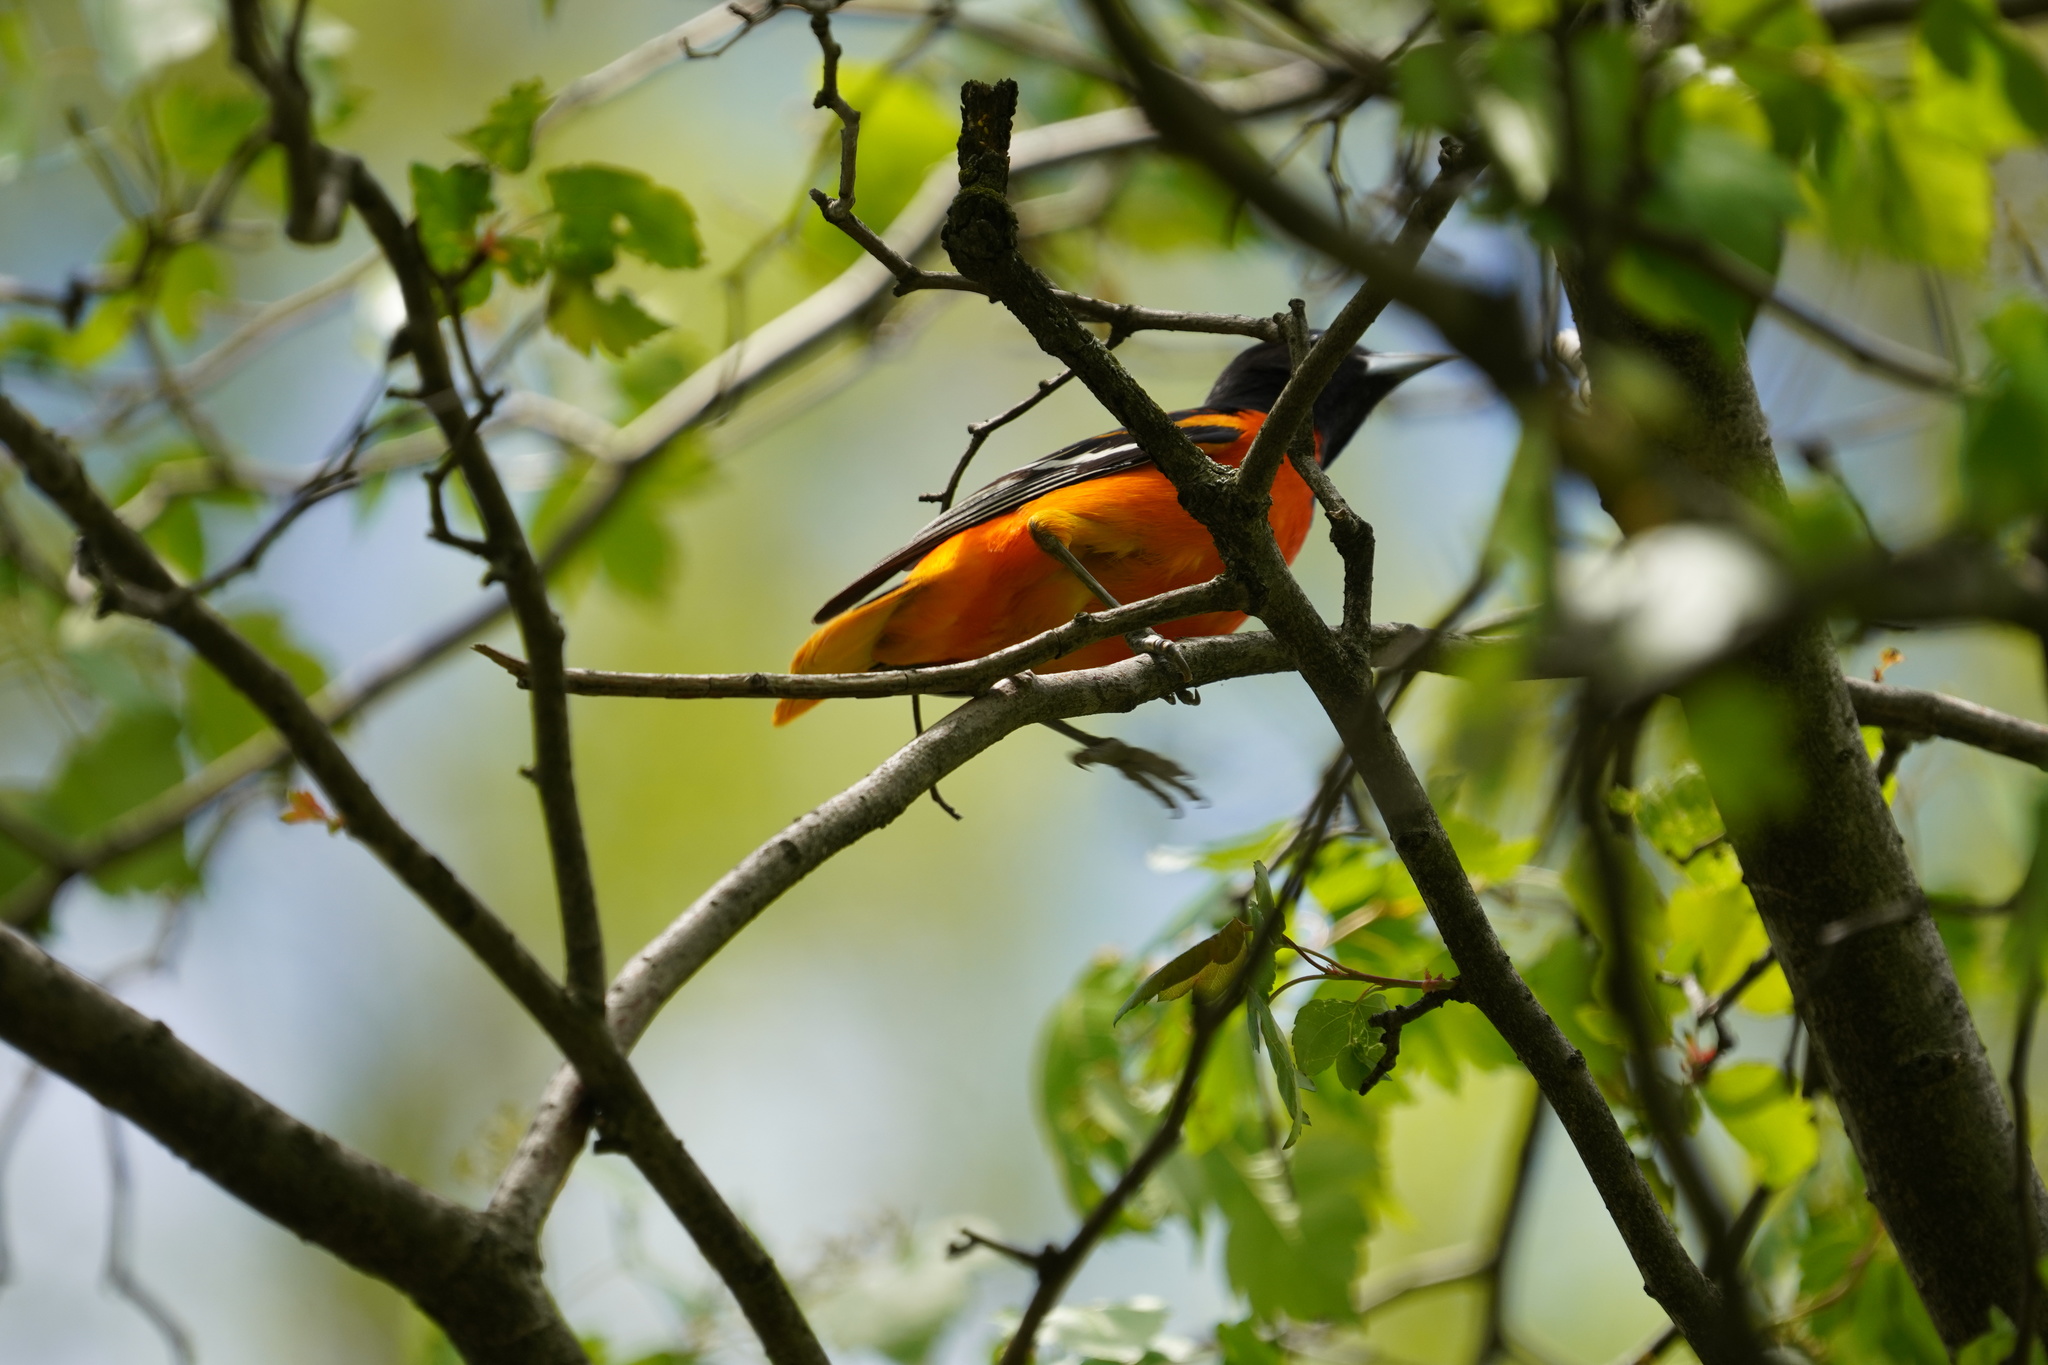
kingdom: Animalia
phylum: Chordata
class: Aves
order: Passeriformes
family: Icteridae
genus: Icterus
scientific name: Icterus galbula
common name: Baltimore oriole
